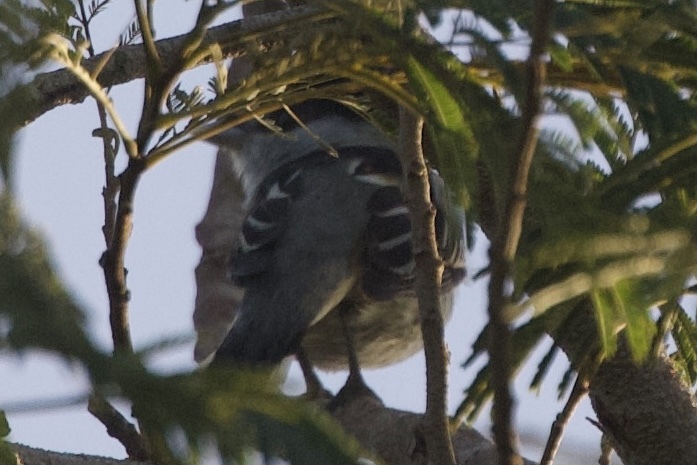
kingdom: Animalia
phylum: Chordata
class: Aves
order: Passeriformes
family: Cotingidae
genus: Pachyramphus
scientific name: Pachyramphus major
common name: Gray-collared becard
